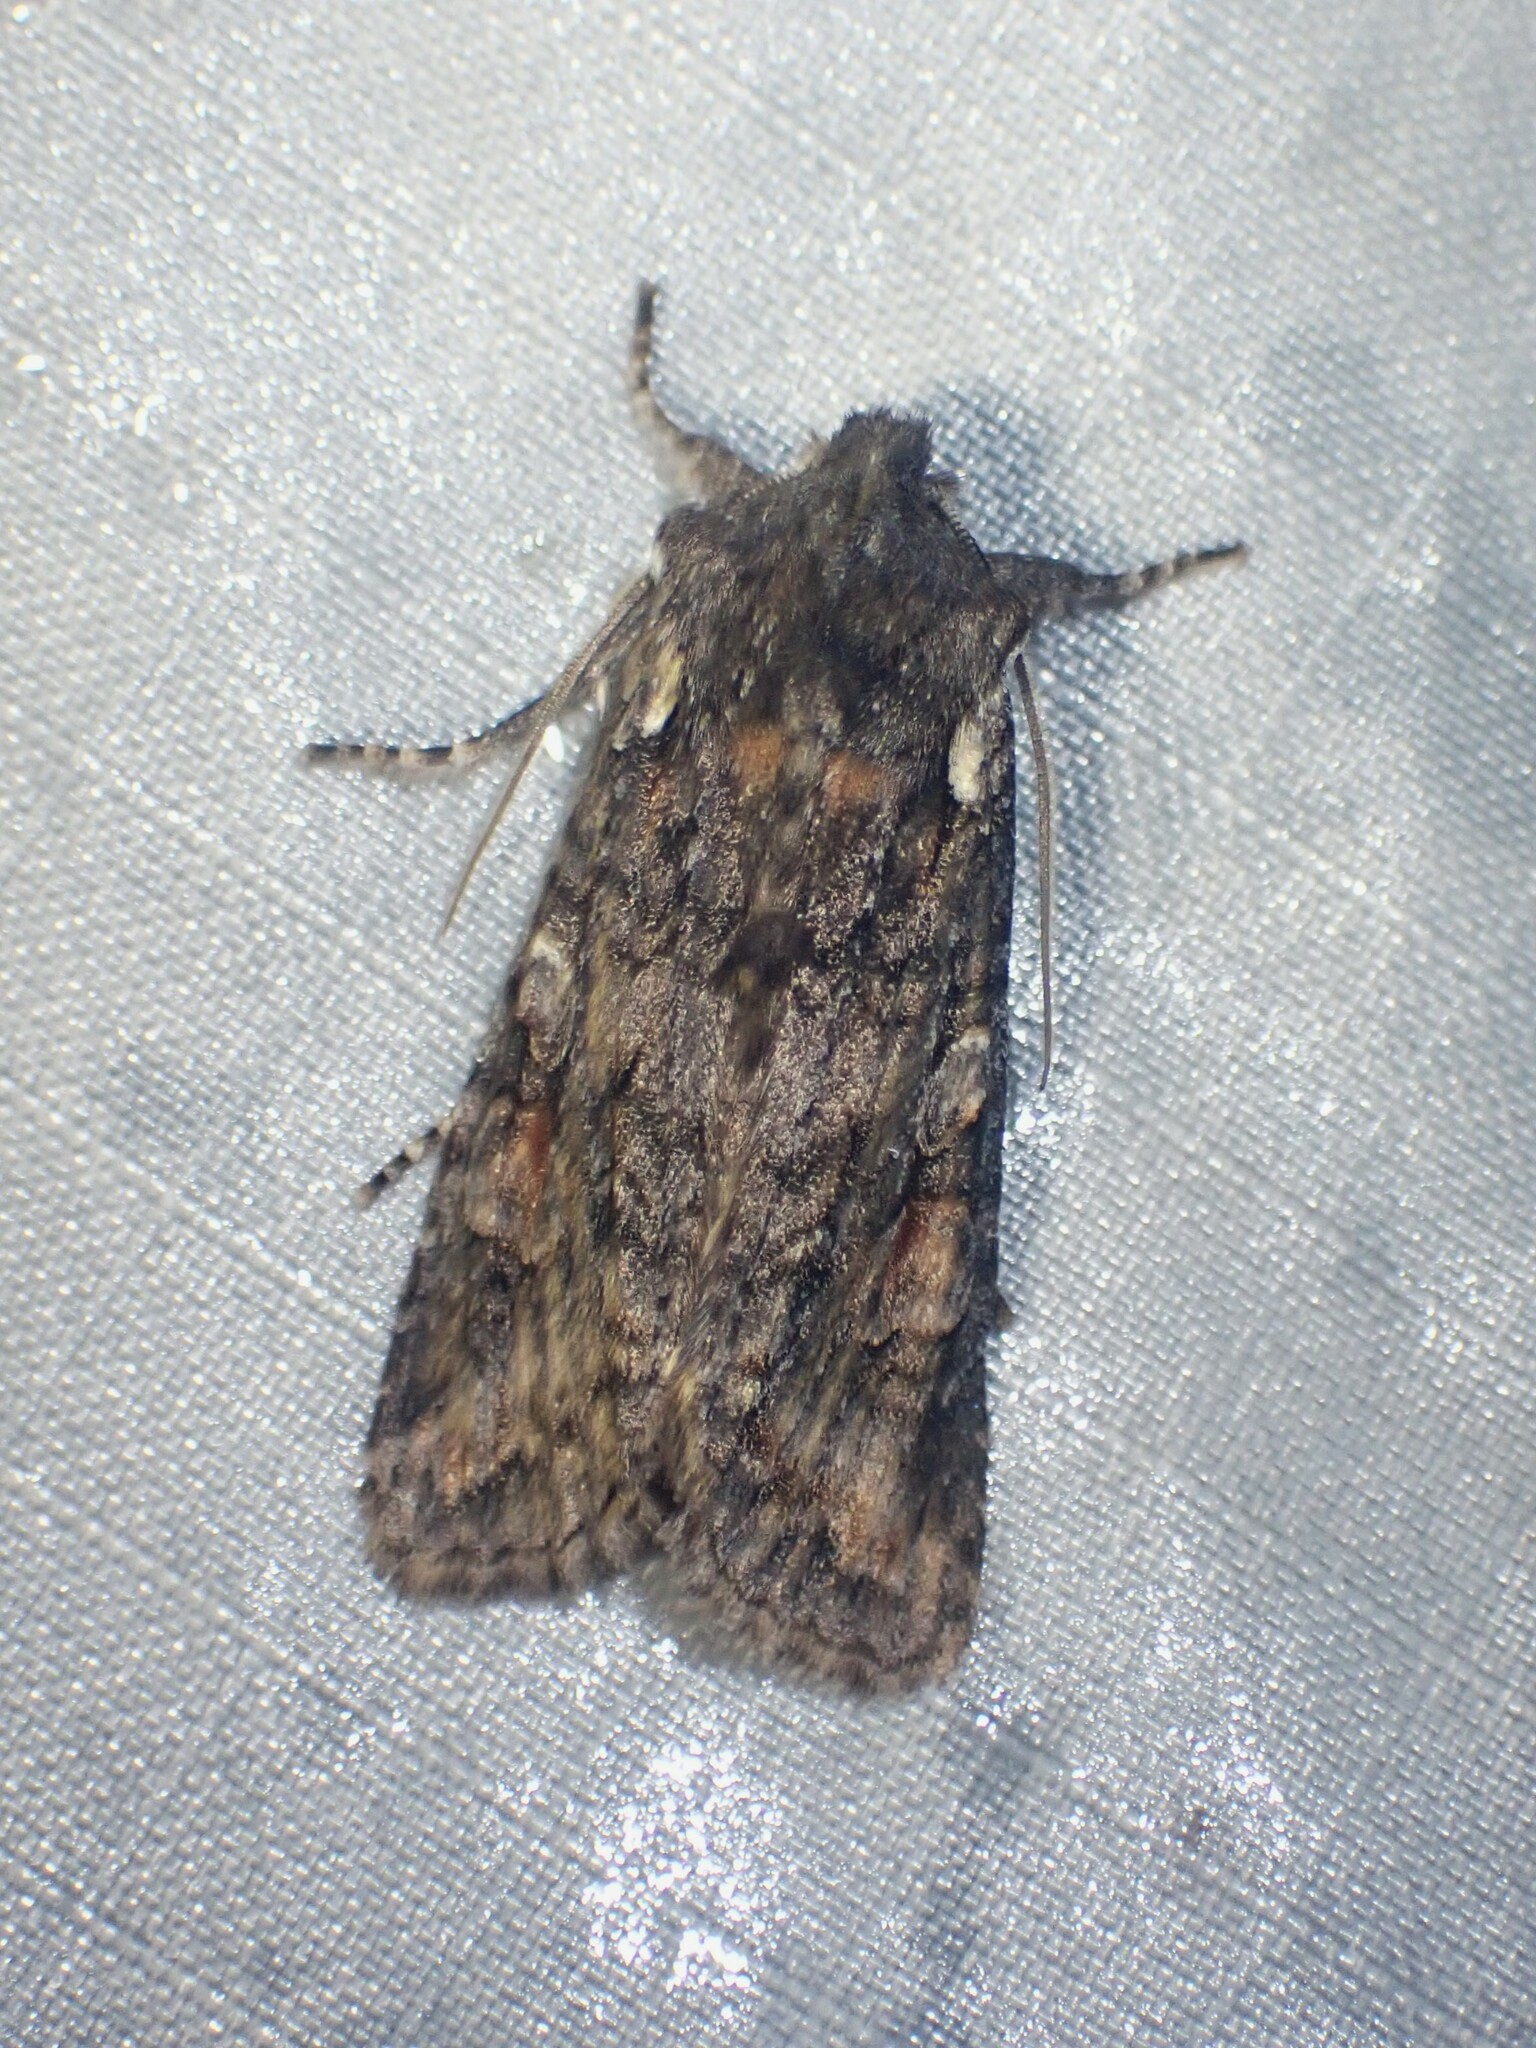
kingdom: Animalia
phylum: Arthropoda
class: Insecta
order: Lepidoptera
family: Noctuidae
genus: Lithophane
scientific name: Lithophane pexata
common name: Plush-naped pinion moth
